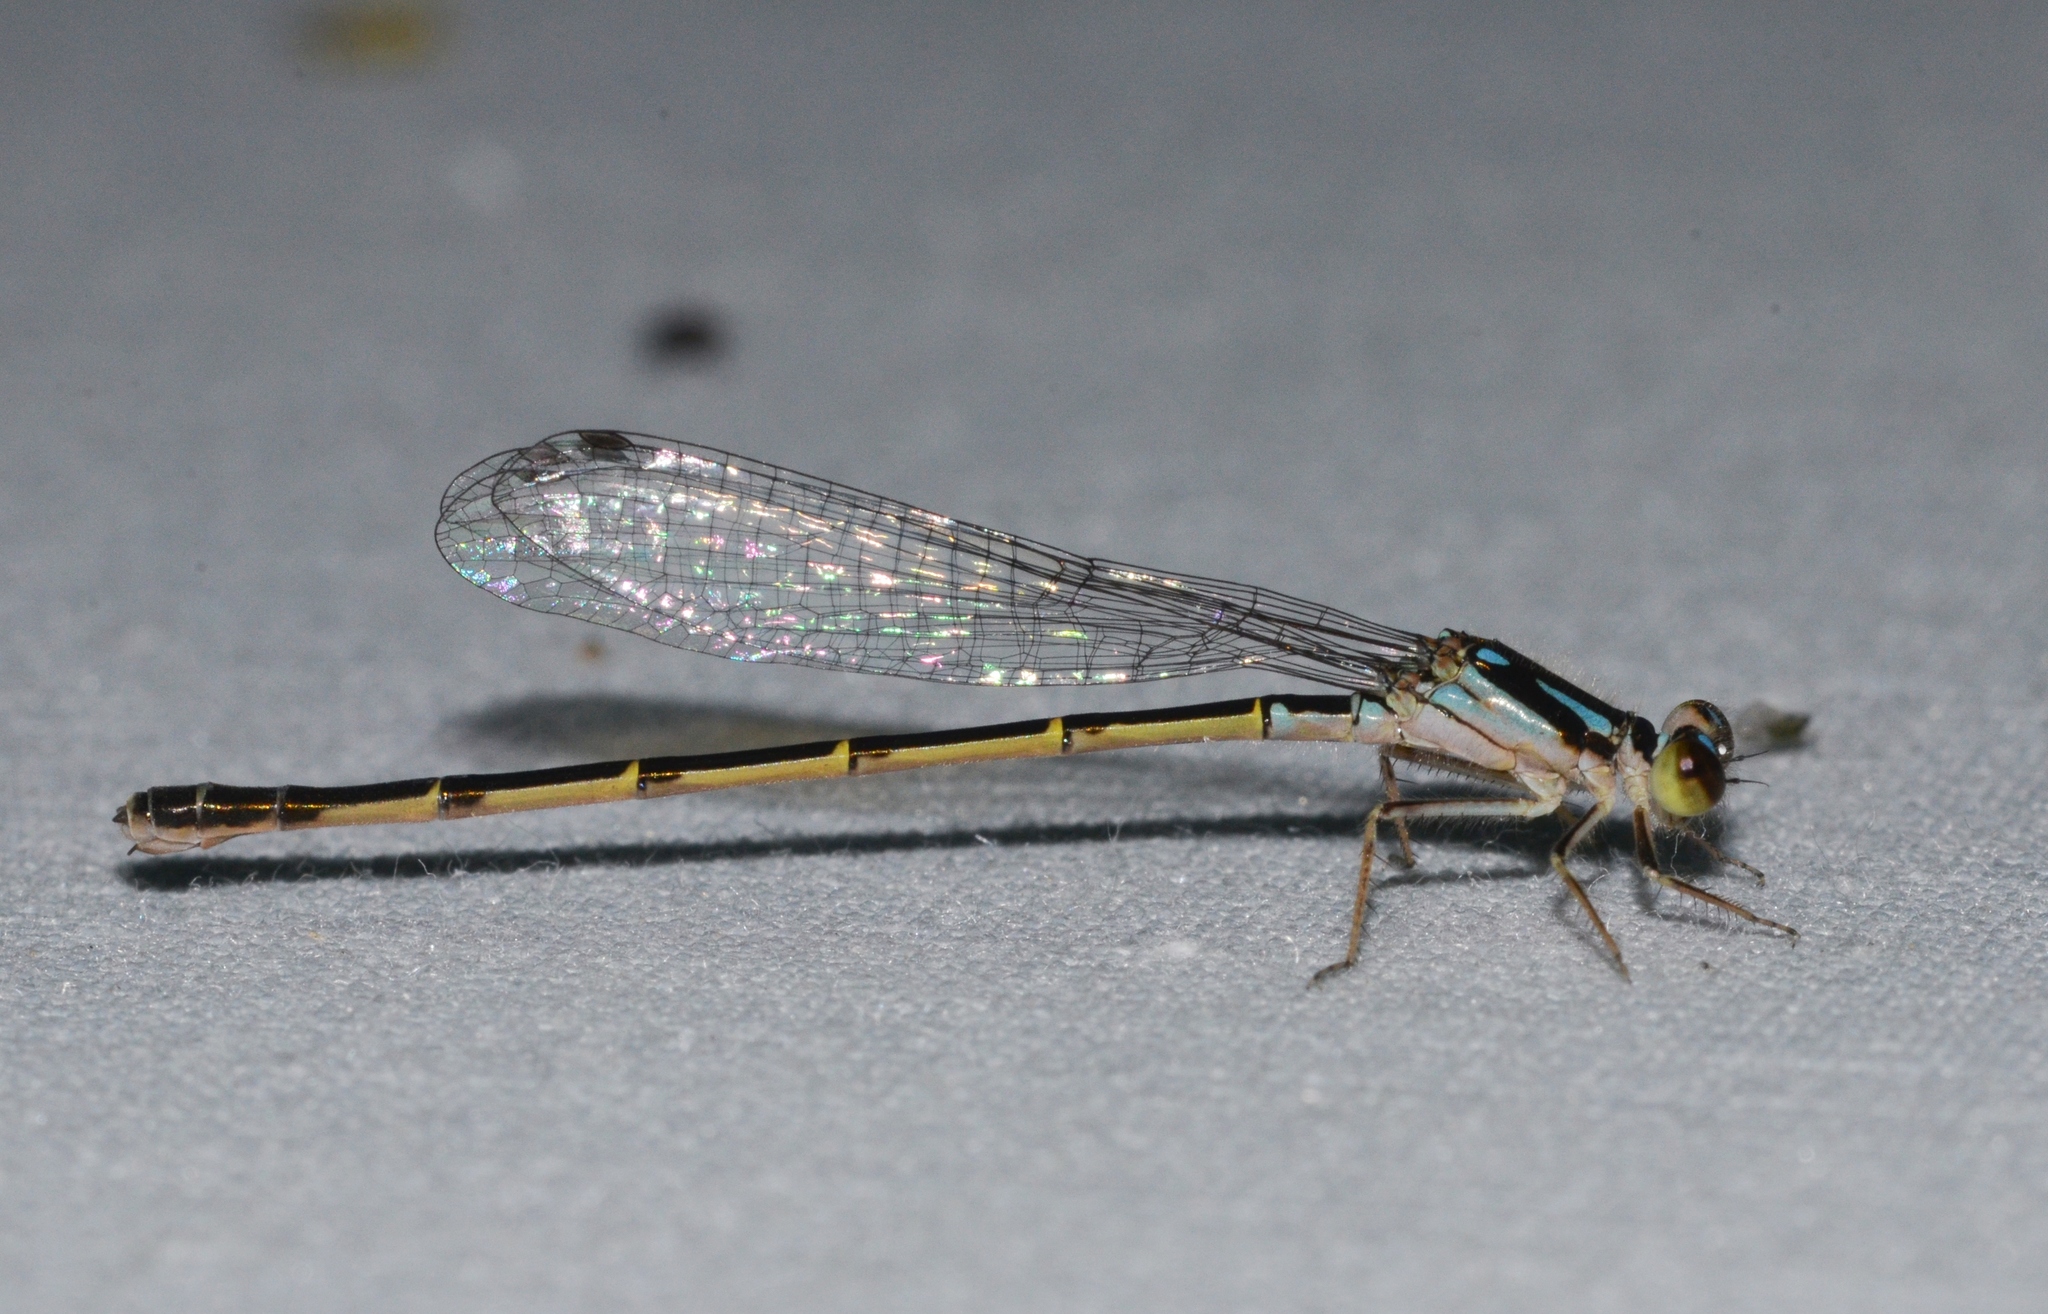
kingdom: Animalia
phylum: Arthropoda
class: Insecta
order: Odonata
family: Coenagrionidae
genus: Ischnura
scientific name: Ischnura posita
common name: Fragile forktail
